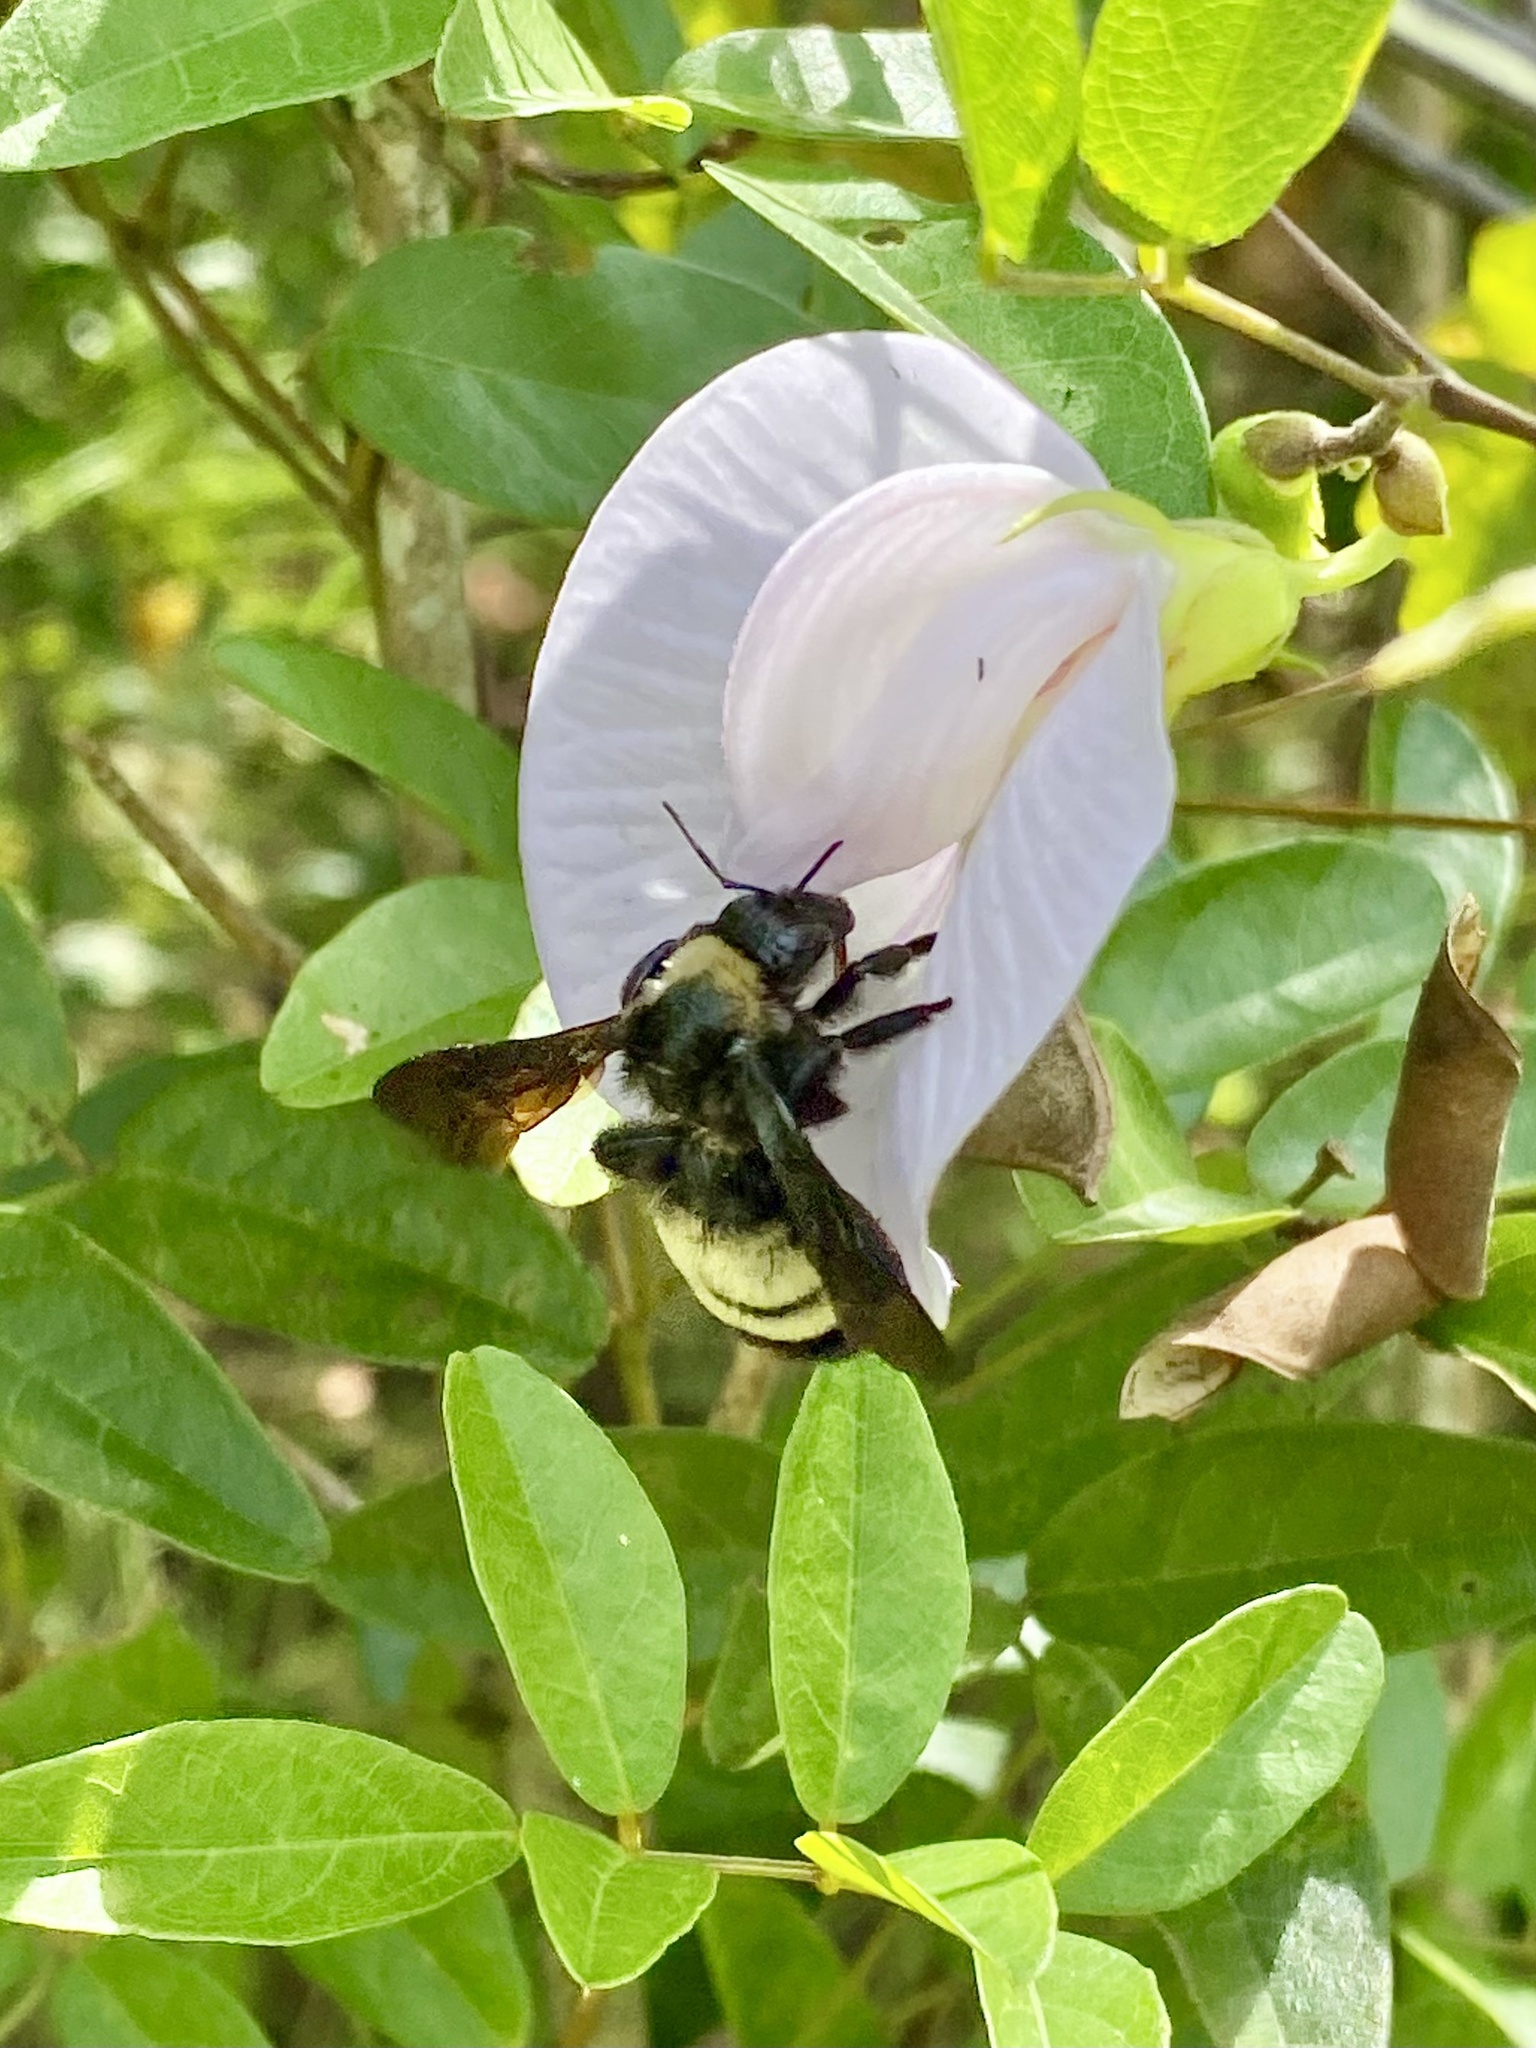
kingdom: Animalia
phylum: Arthropoda
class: Insecta
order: Hymenoptera
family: Apidae
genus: Bombus
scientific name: Bombus pensylvanicus
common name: Bumble bee
